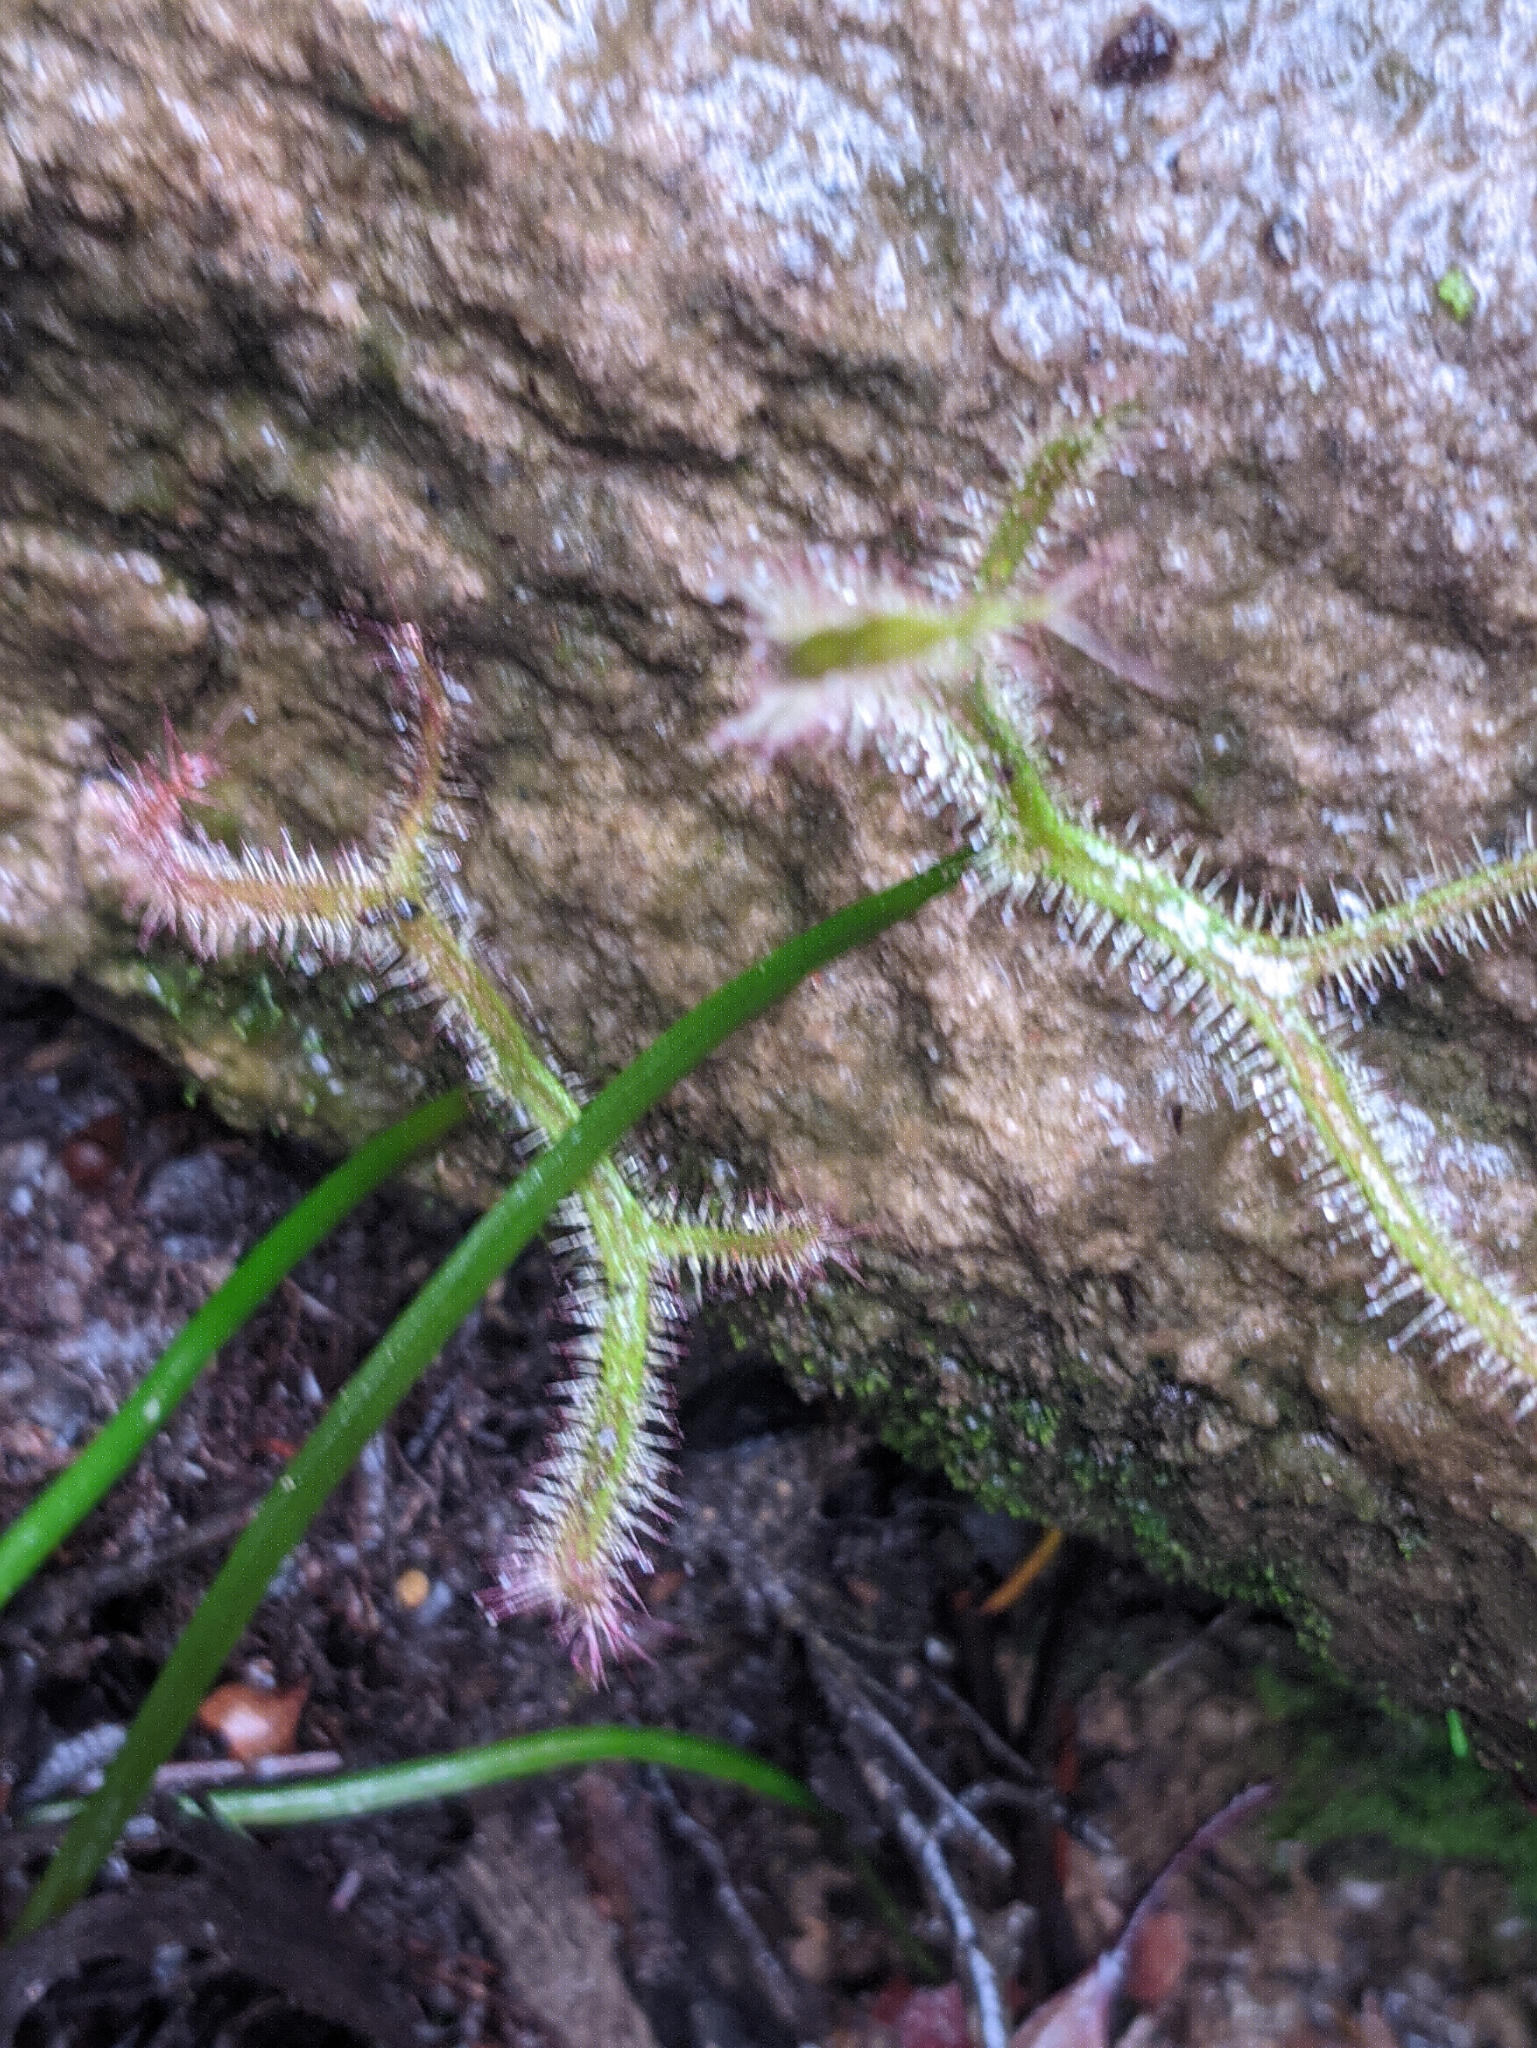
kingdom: Plantae
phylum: Tracheophyta
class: Magnoliopsida
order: Caryophyllales
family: Droseraceae
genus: Drosera
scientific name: Drosera binata
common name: Forked sundew
